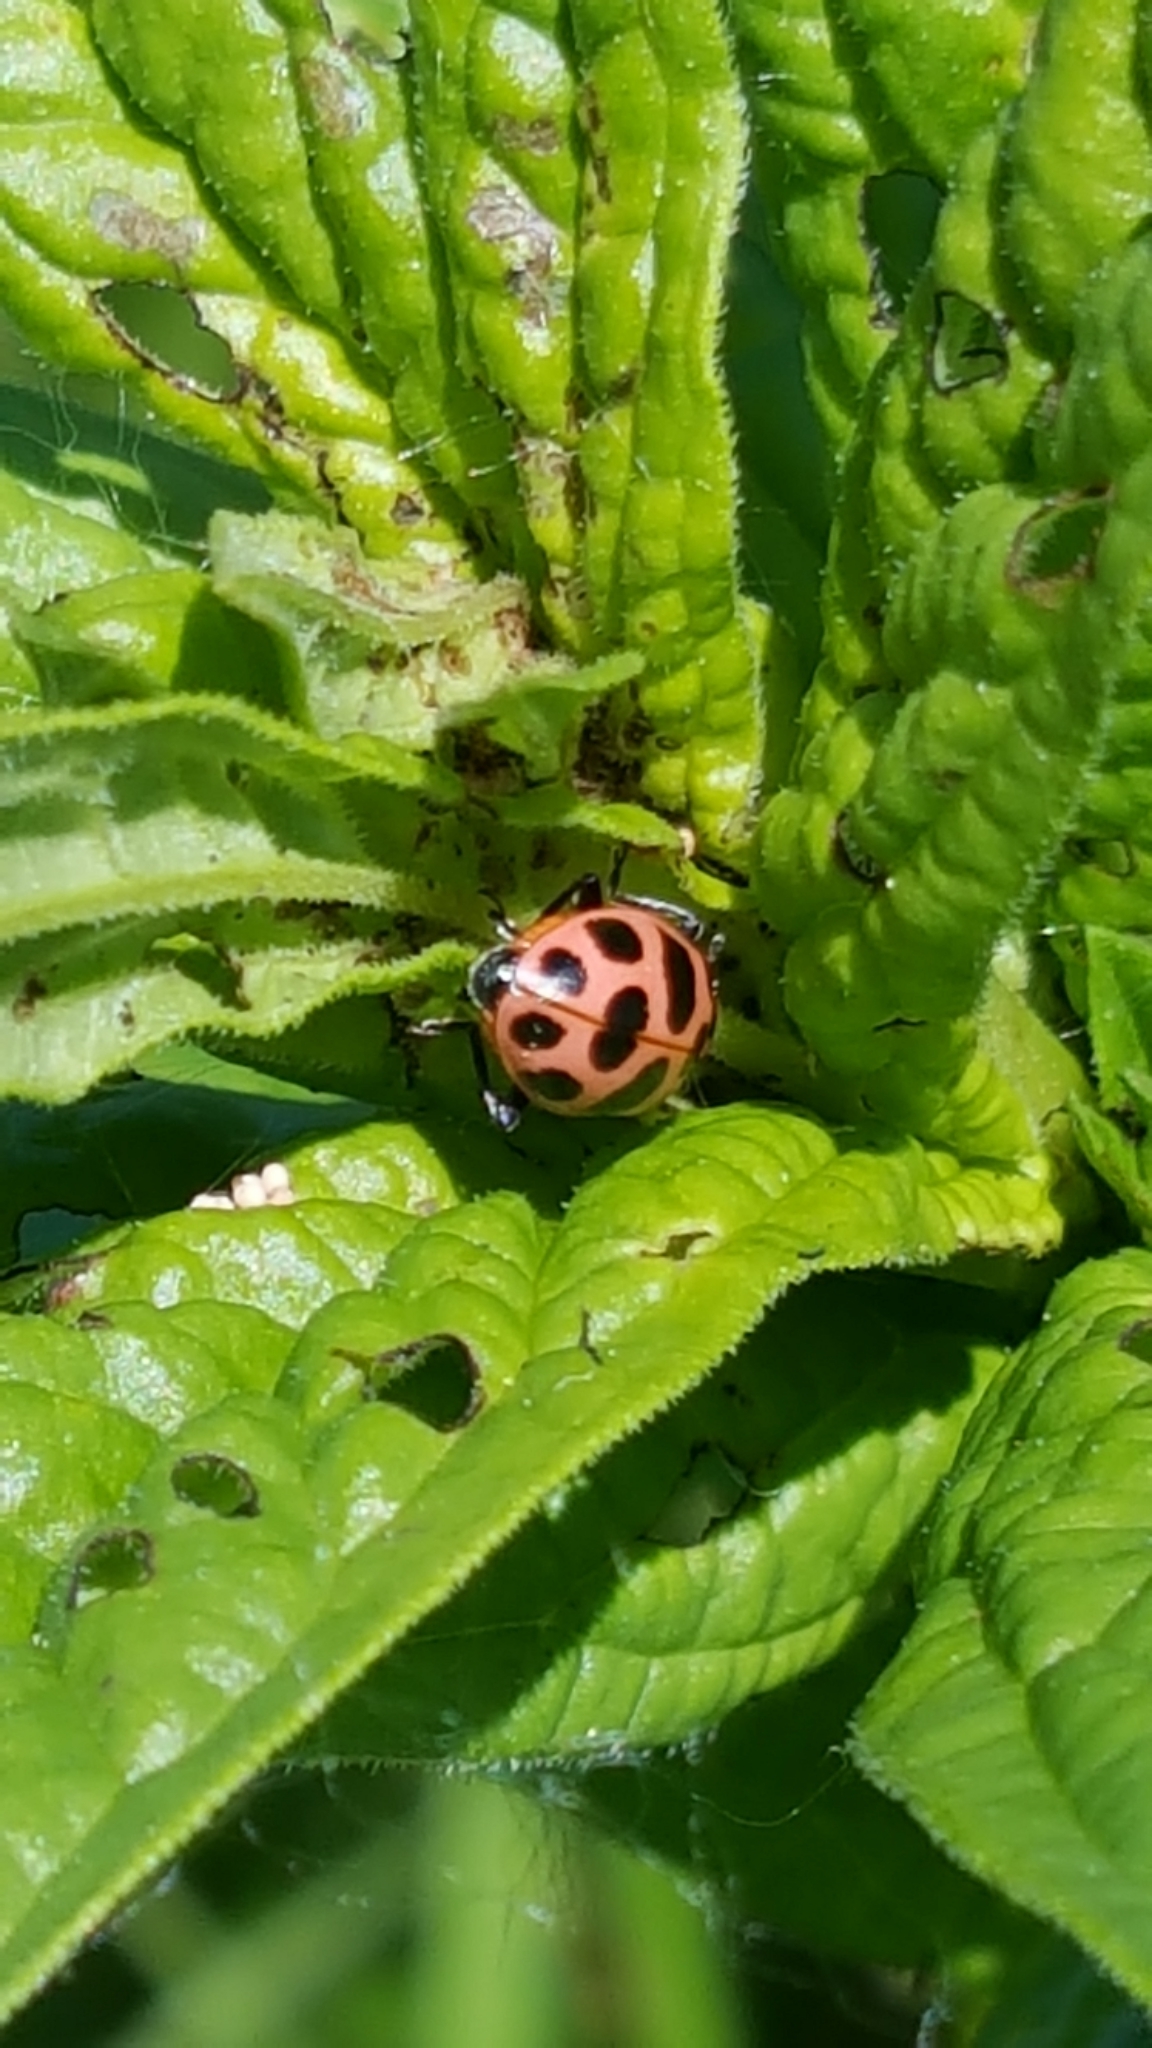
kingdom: Animalia
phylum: Arthropoda
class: Insecta
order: Coleoptera
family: Coccinellidae
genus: Coleomegilla
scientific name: Coleomegilla maculata
